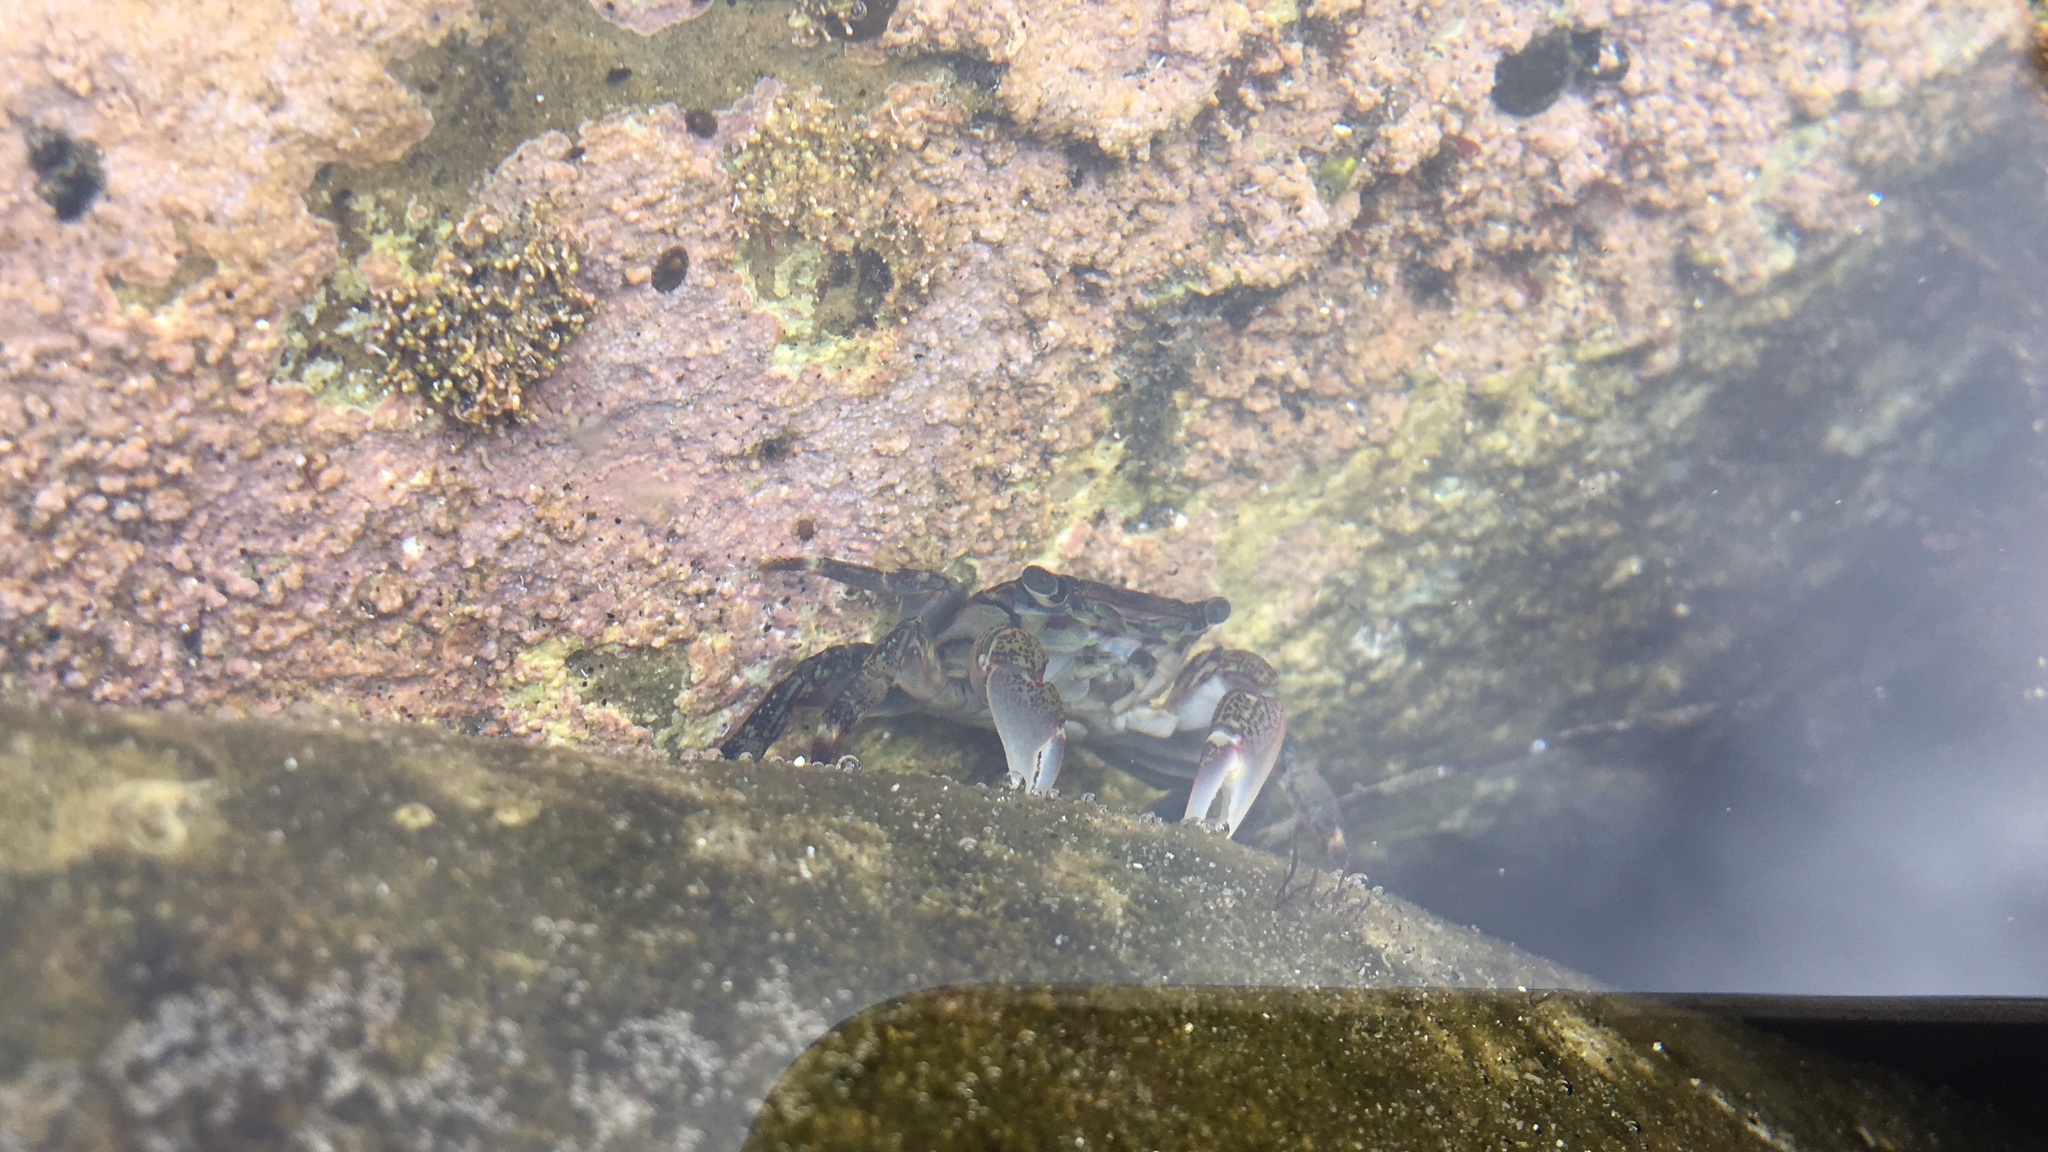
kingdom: Animalia
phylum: Arthropoda
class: Malacostraca
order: Decapoda
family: Grapsidae
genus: Pachygrapsus
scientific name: Pachygrapsus crassipes
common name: Striped shore crab
